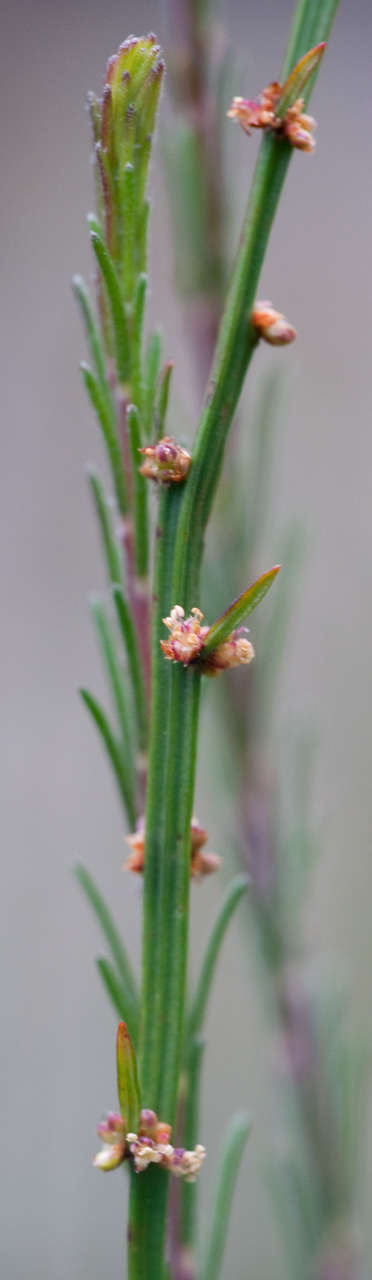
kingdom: Plantae
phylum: Tracheophyta
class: Magnoliopsida
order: Malpighiales
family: Euphorbiaceae
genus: Amperea
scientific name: Amperea xiphoclada
